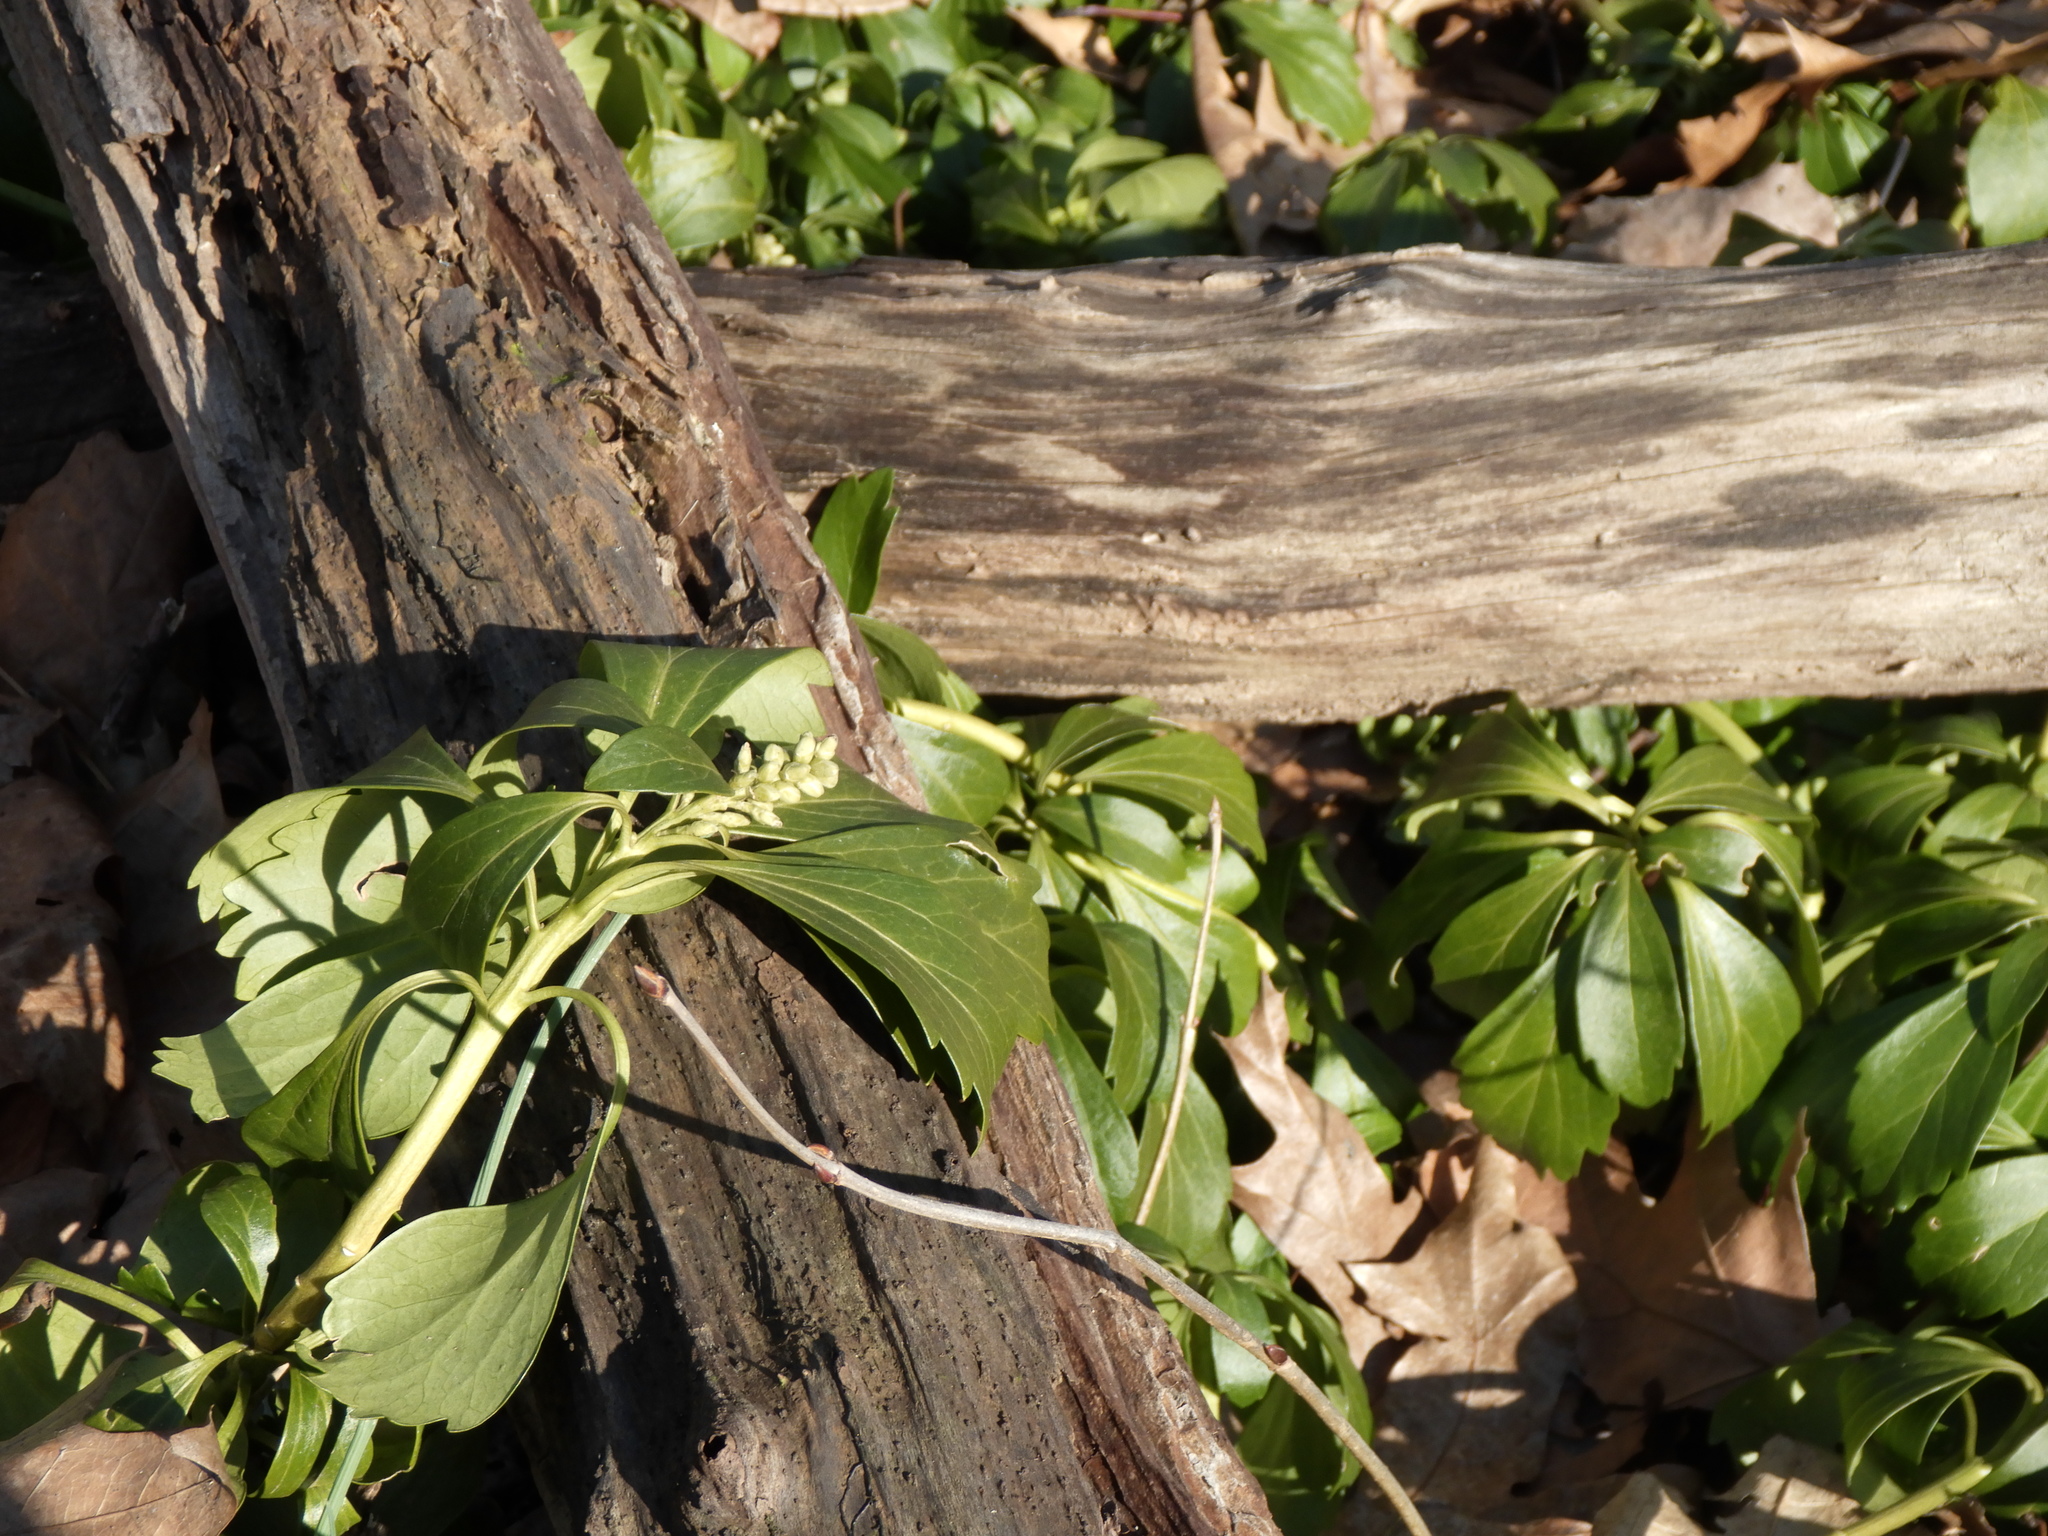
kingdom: Plantae
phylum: Tracheophyta
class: Magnoliopsida
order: Buxales
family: Buxaceae
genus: Pachysandra
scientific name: Pachysandra terminalis
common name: Japanese pachysandra
